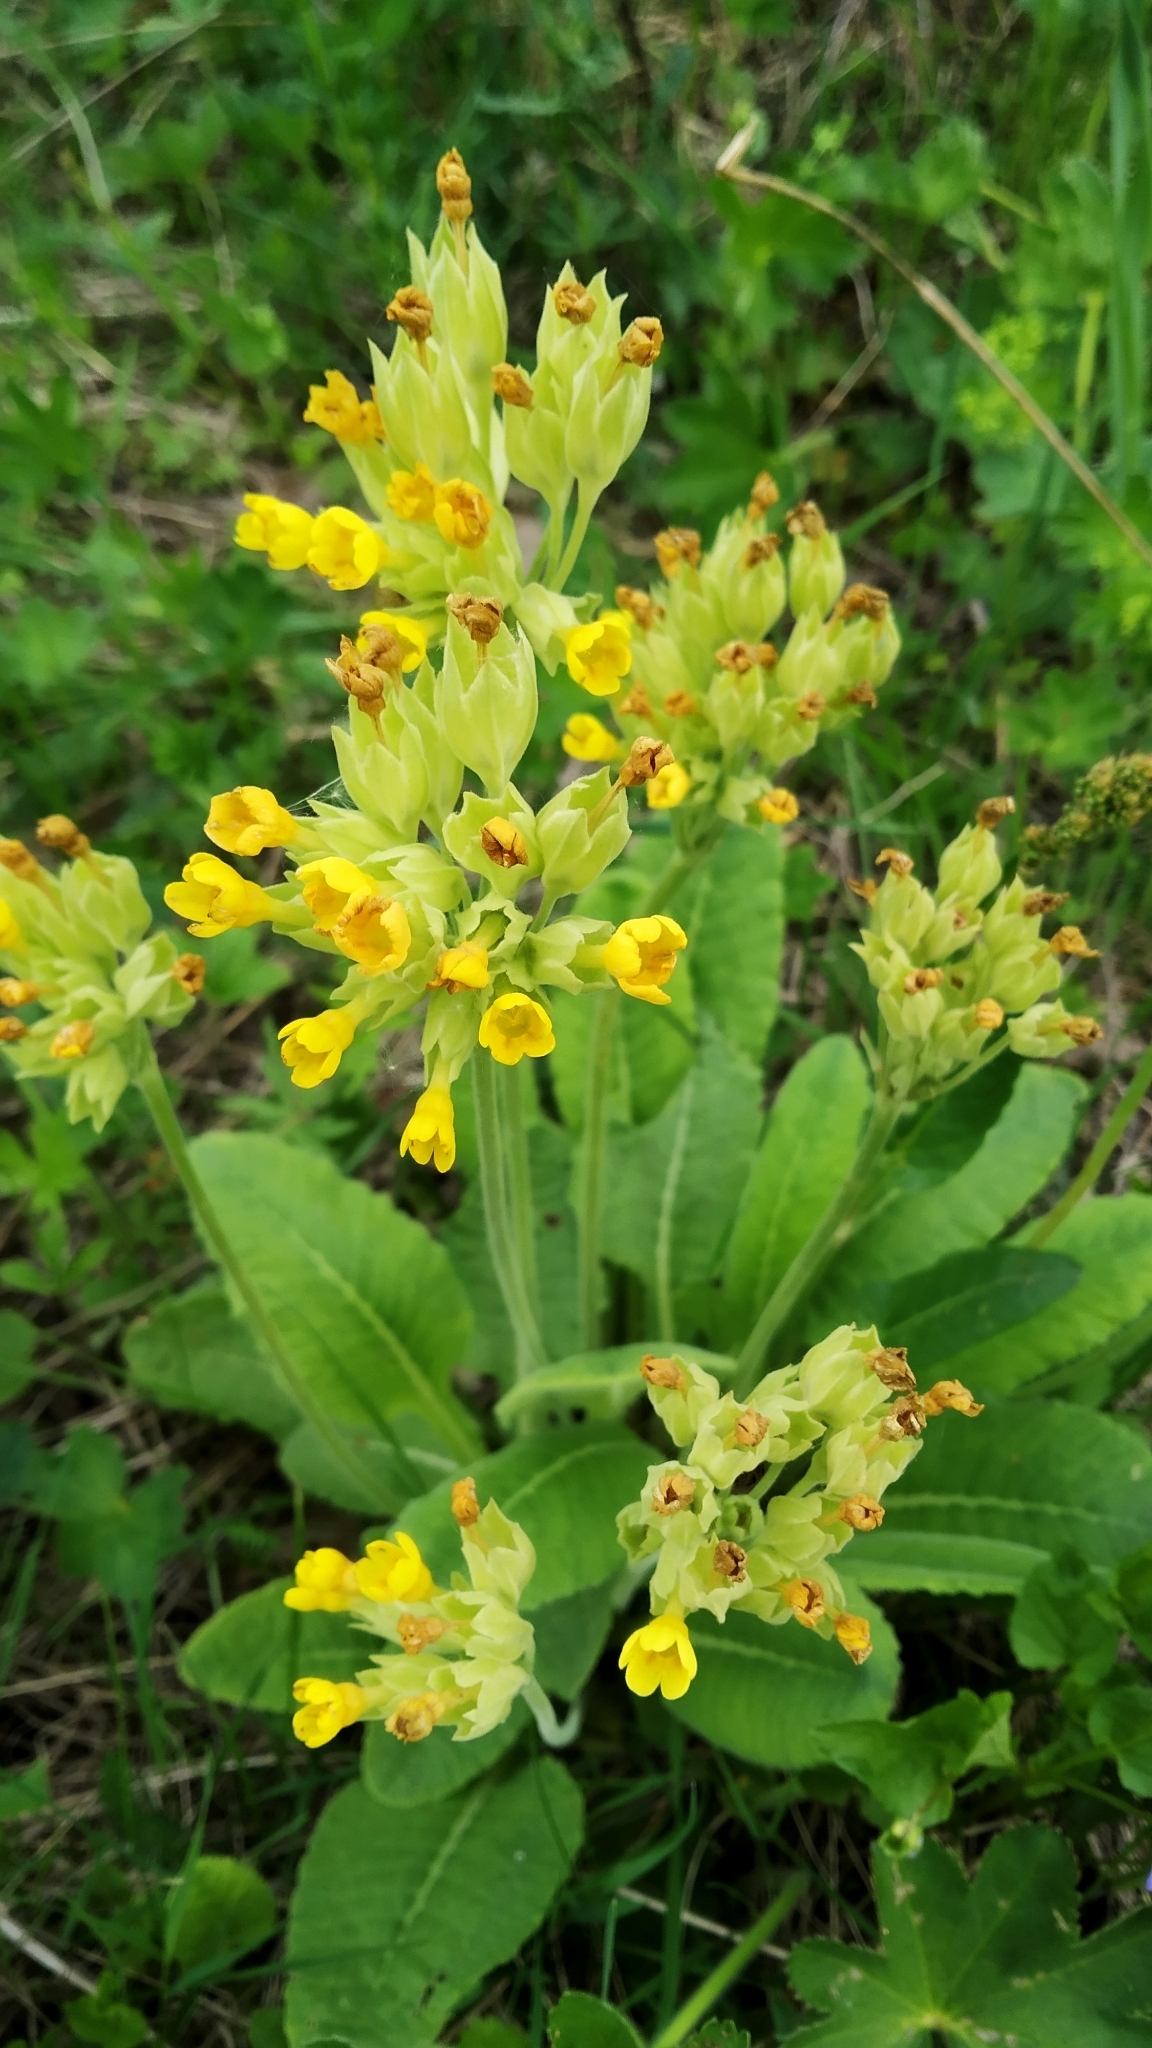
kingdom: Plantae
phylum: Tracheophyta
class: Magnoliopsida
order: Ericales
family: Primulaceae
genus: Primula
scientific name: Primula veris
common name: Cowslip
